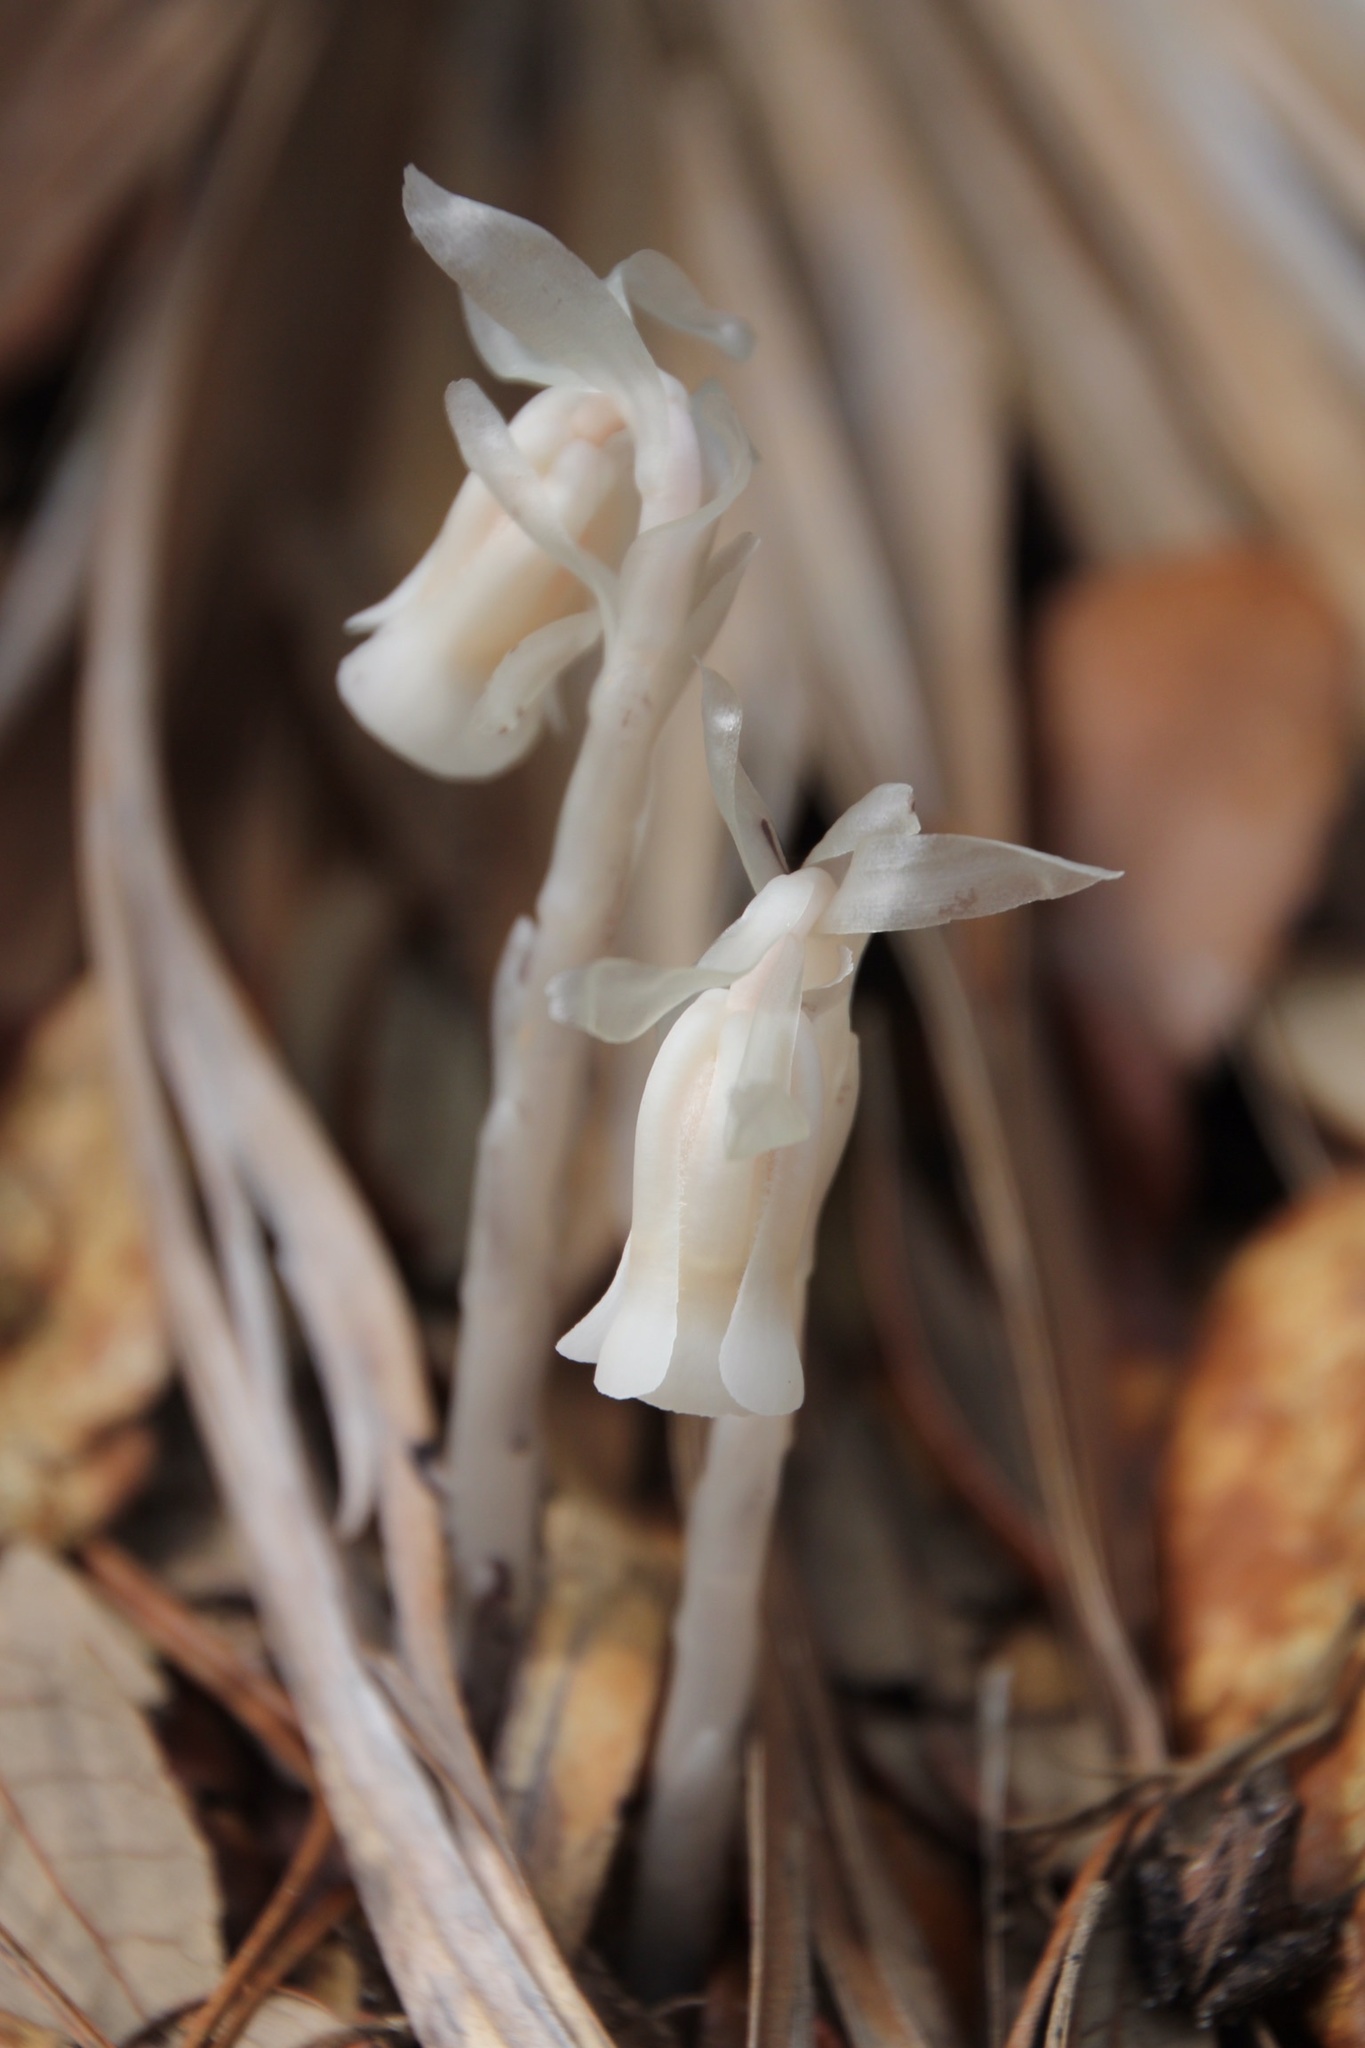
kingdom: Plantae
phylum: Tracheophyta
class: Magnoliopsida
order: Ericales
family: Ericaceae
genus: Monotropa
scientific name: Monotropa uniflora
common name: Convulsion root
